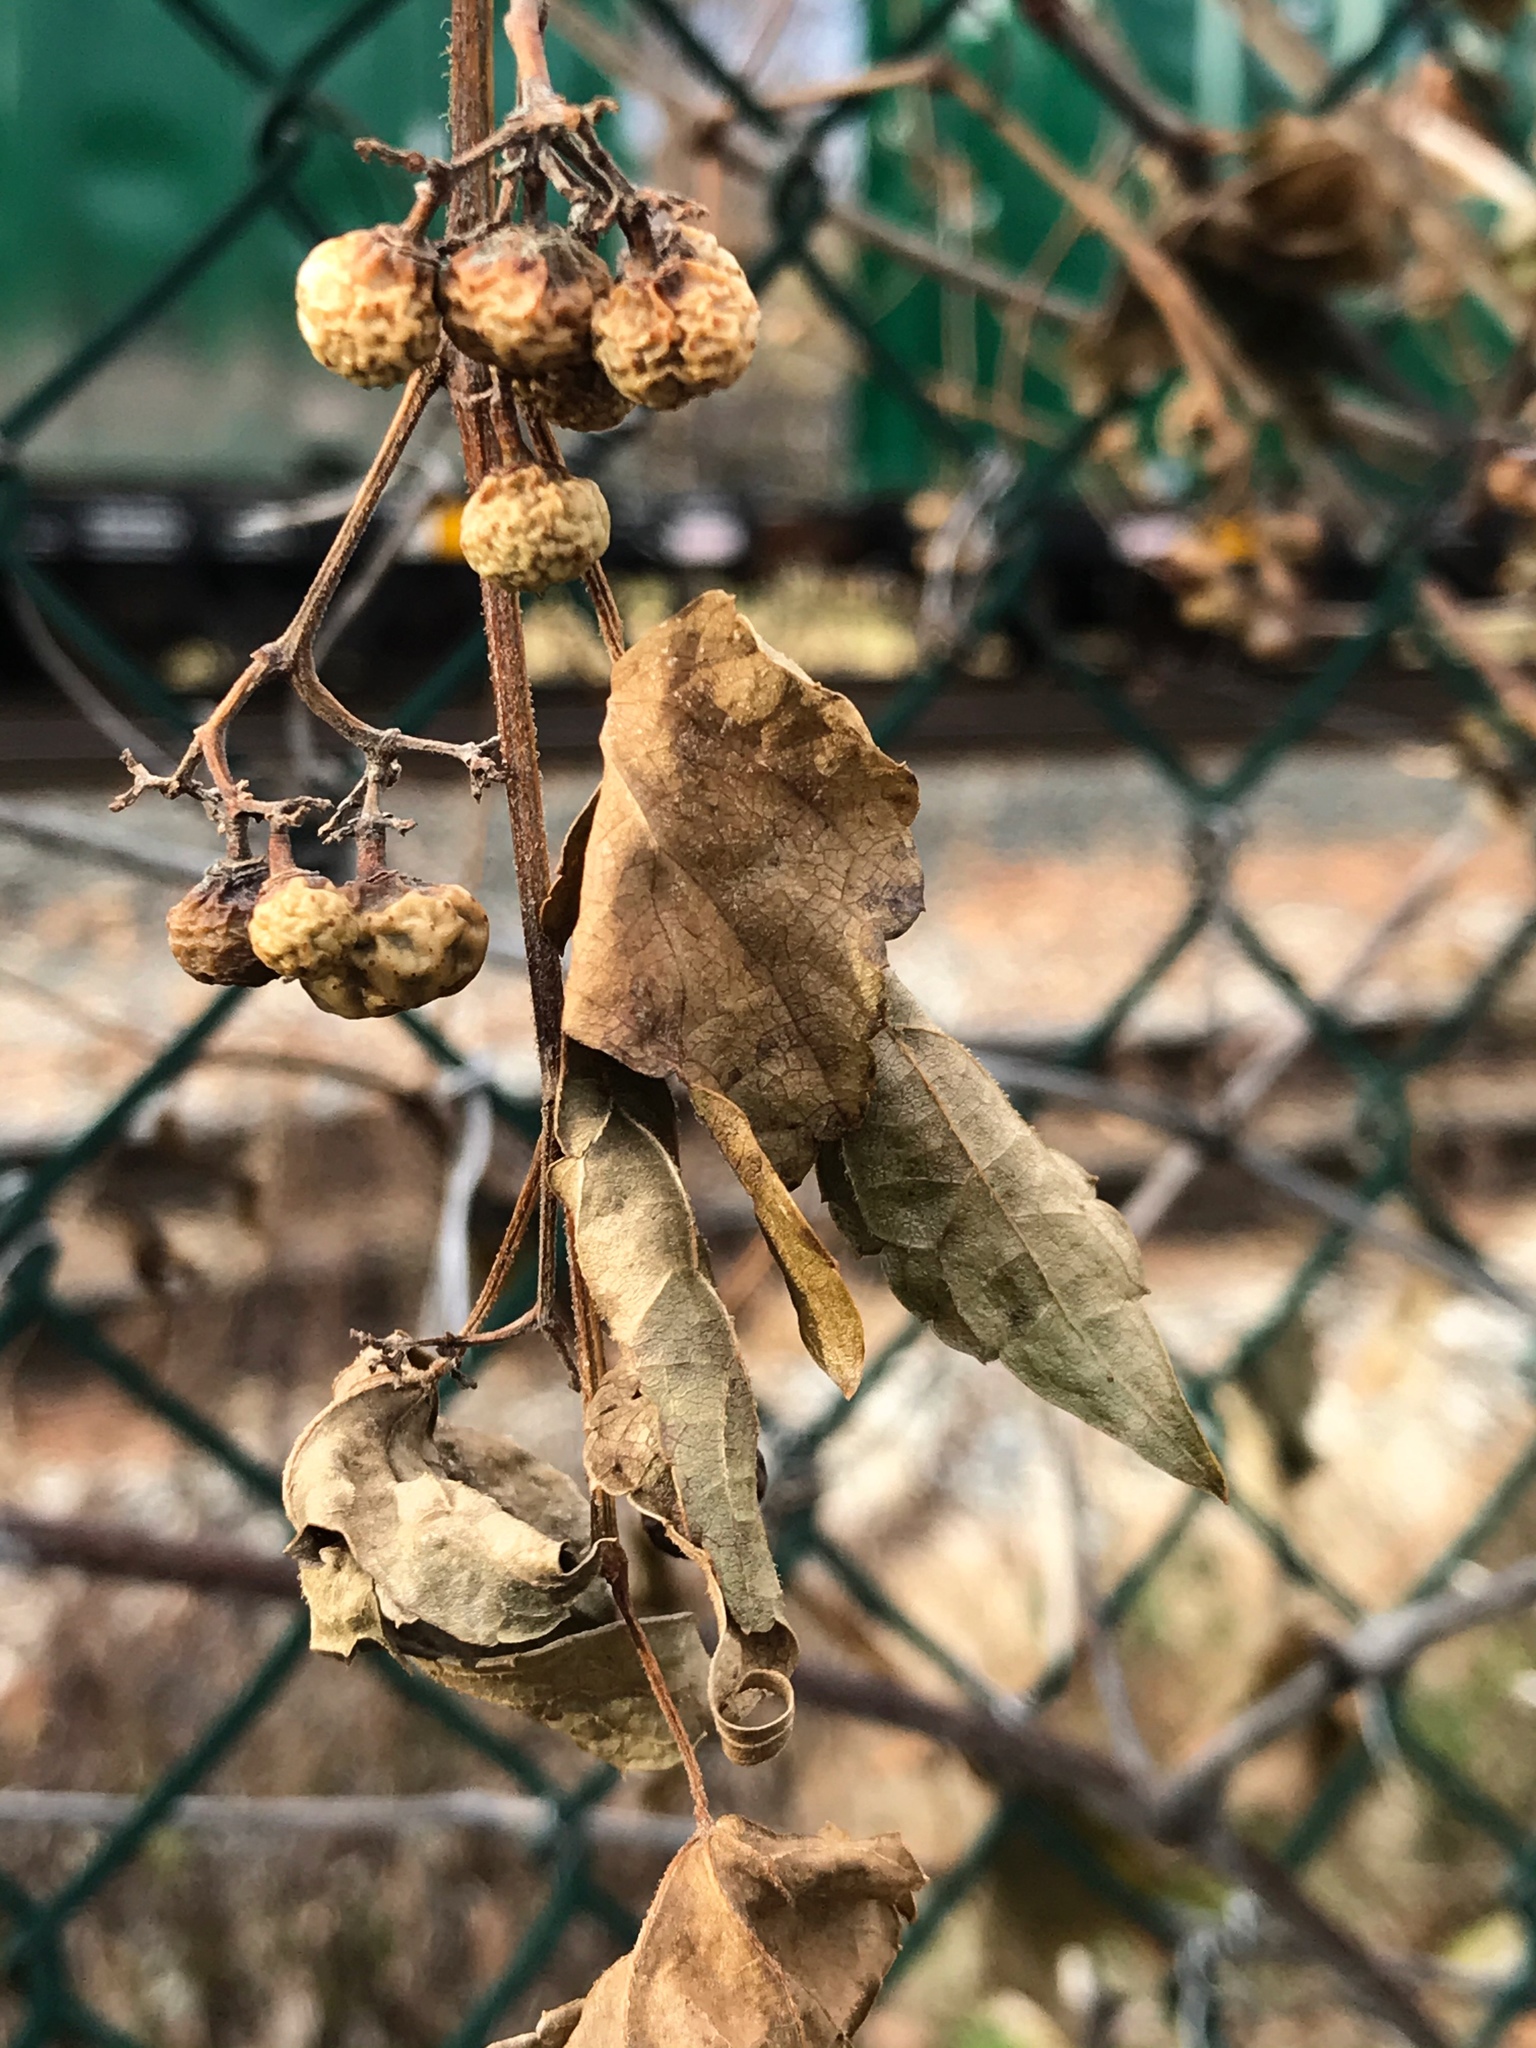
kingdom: Plantae
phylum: Tracheophyta
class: Magnoliopsida
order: Vitales
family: Vitaceae
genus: Ampelopsis
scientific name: Ampelopsis glandulosa
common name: Amur peppervine
